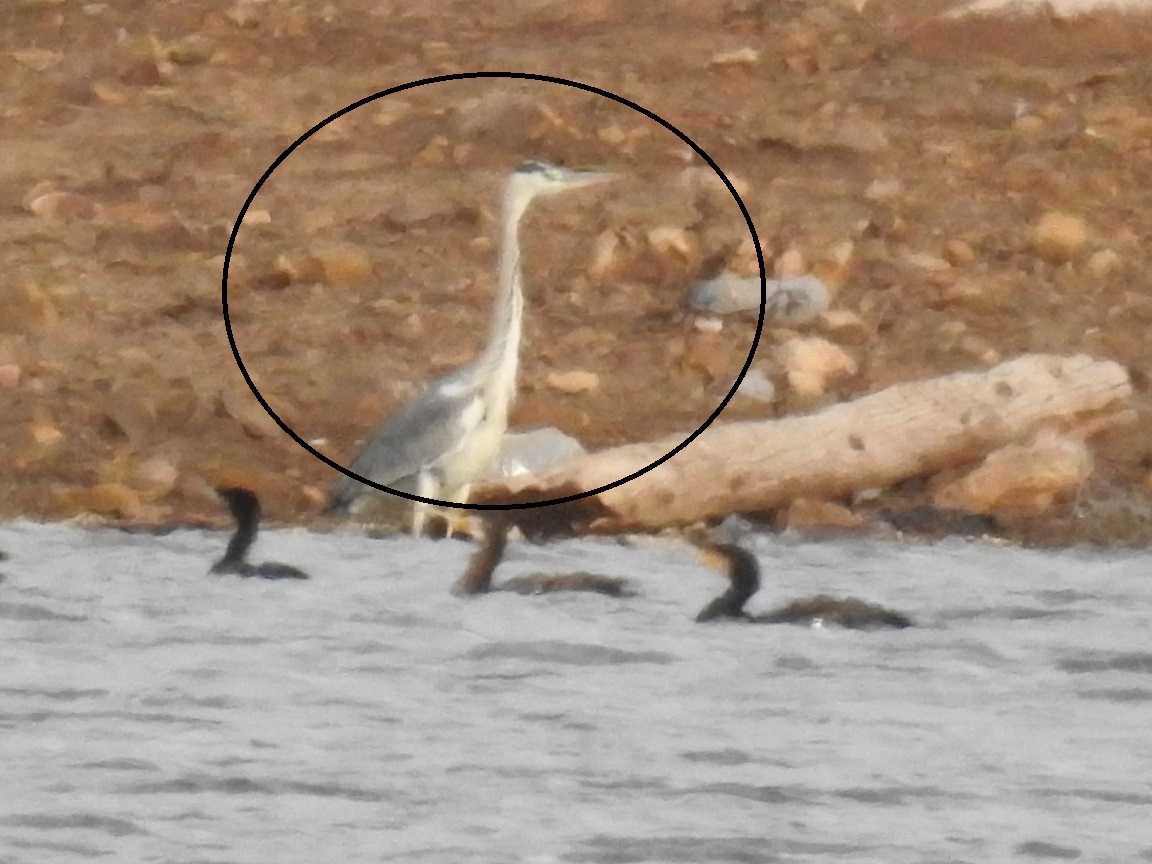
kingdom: Animalia
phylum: Chordata
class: Aves
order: Pelecaniformes
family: Ardeidae
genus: Ardea
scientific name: Ardea cinerea
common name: Grey heron
